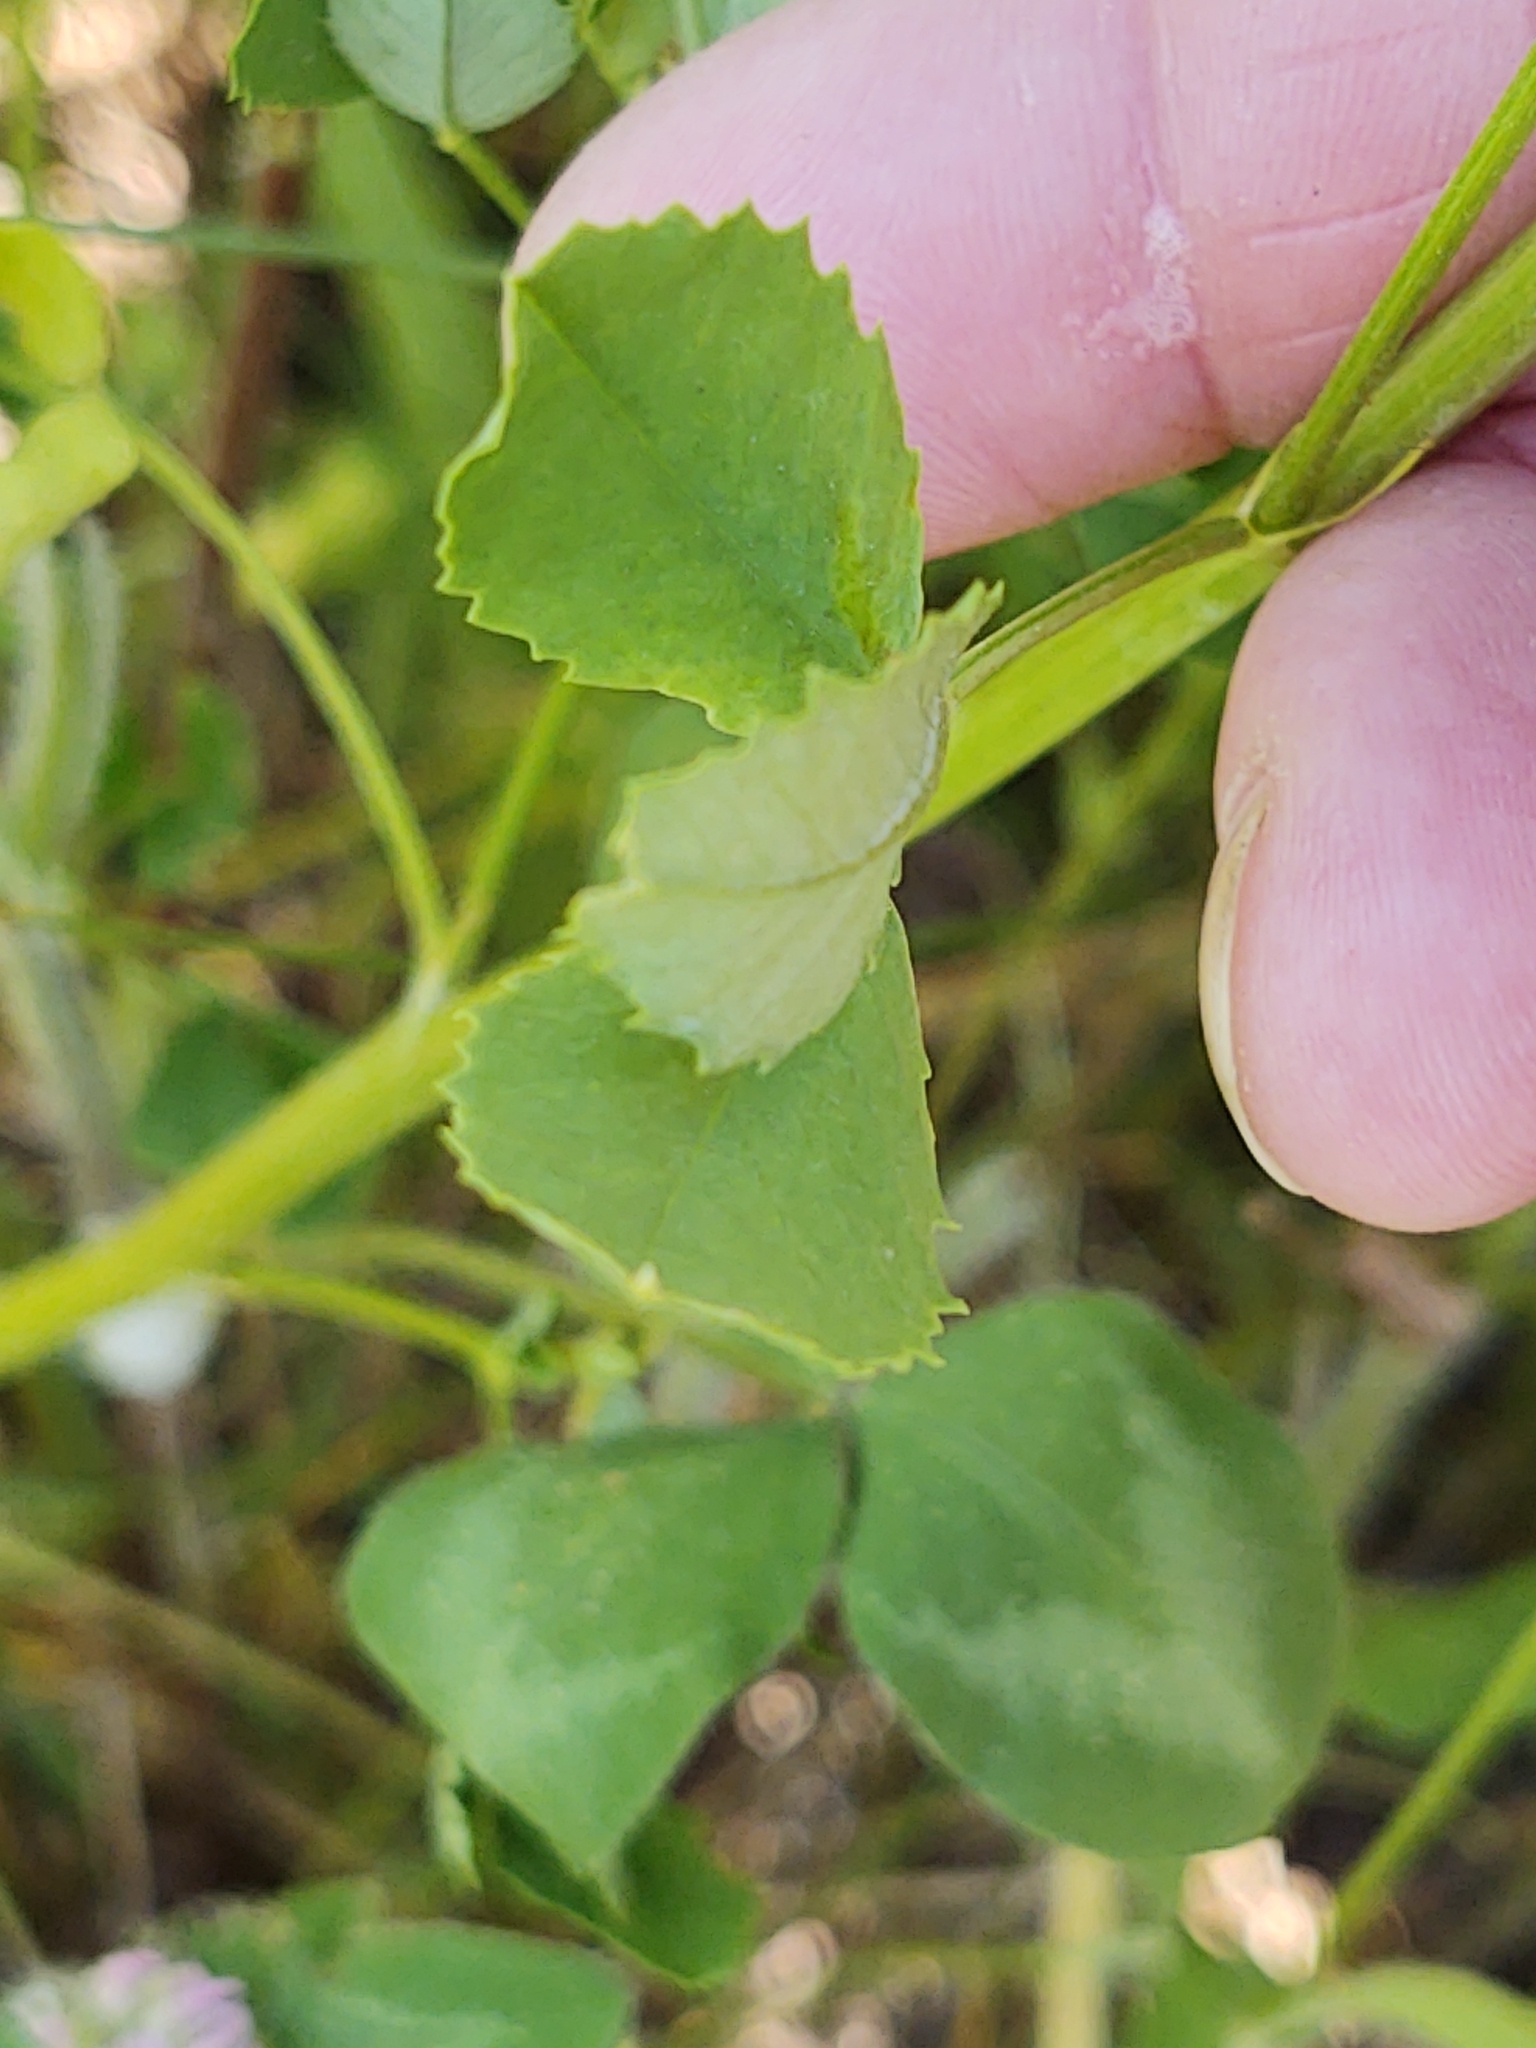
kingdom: Plantae
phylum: Tracheophyta
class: Magnoliopsida
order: Fabales
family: Fabaceae
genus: Melilotus
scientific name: Melilotus officinalis
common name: Sweetclover
